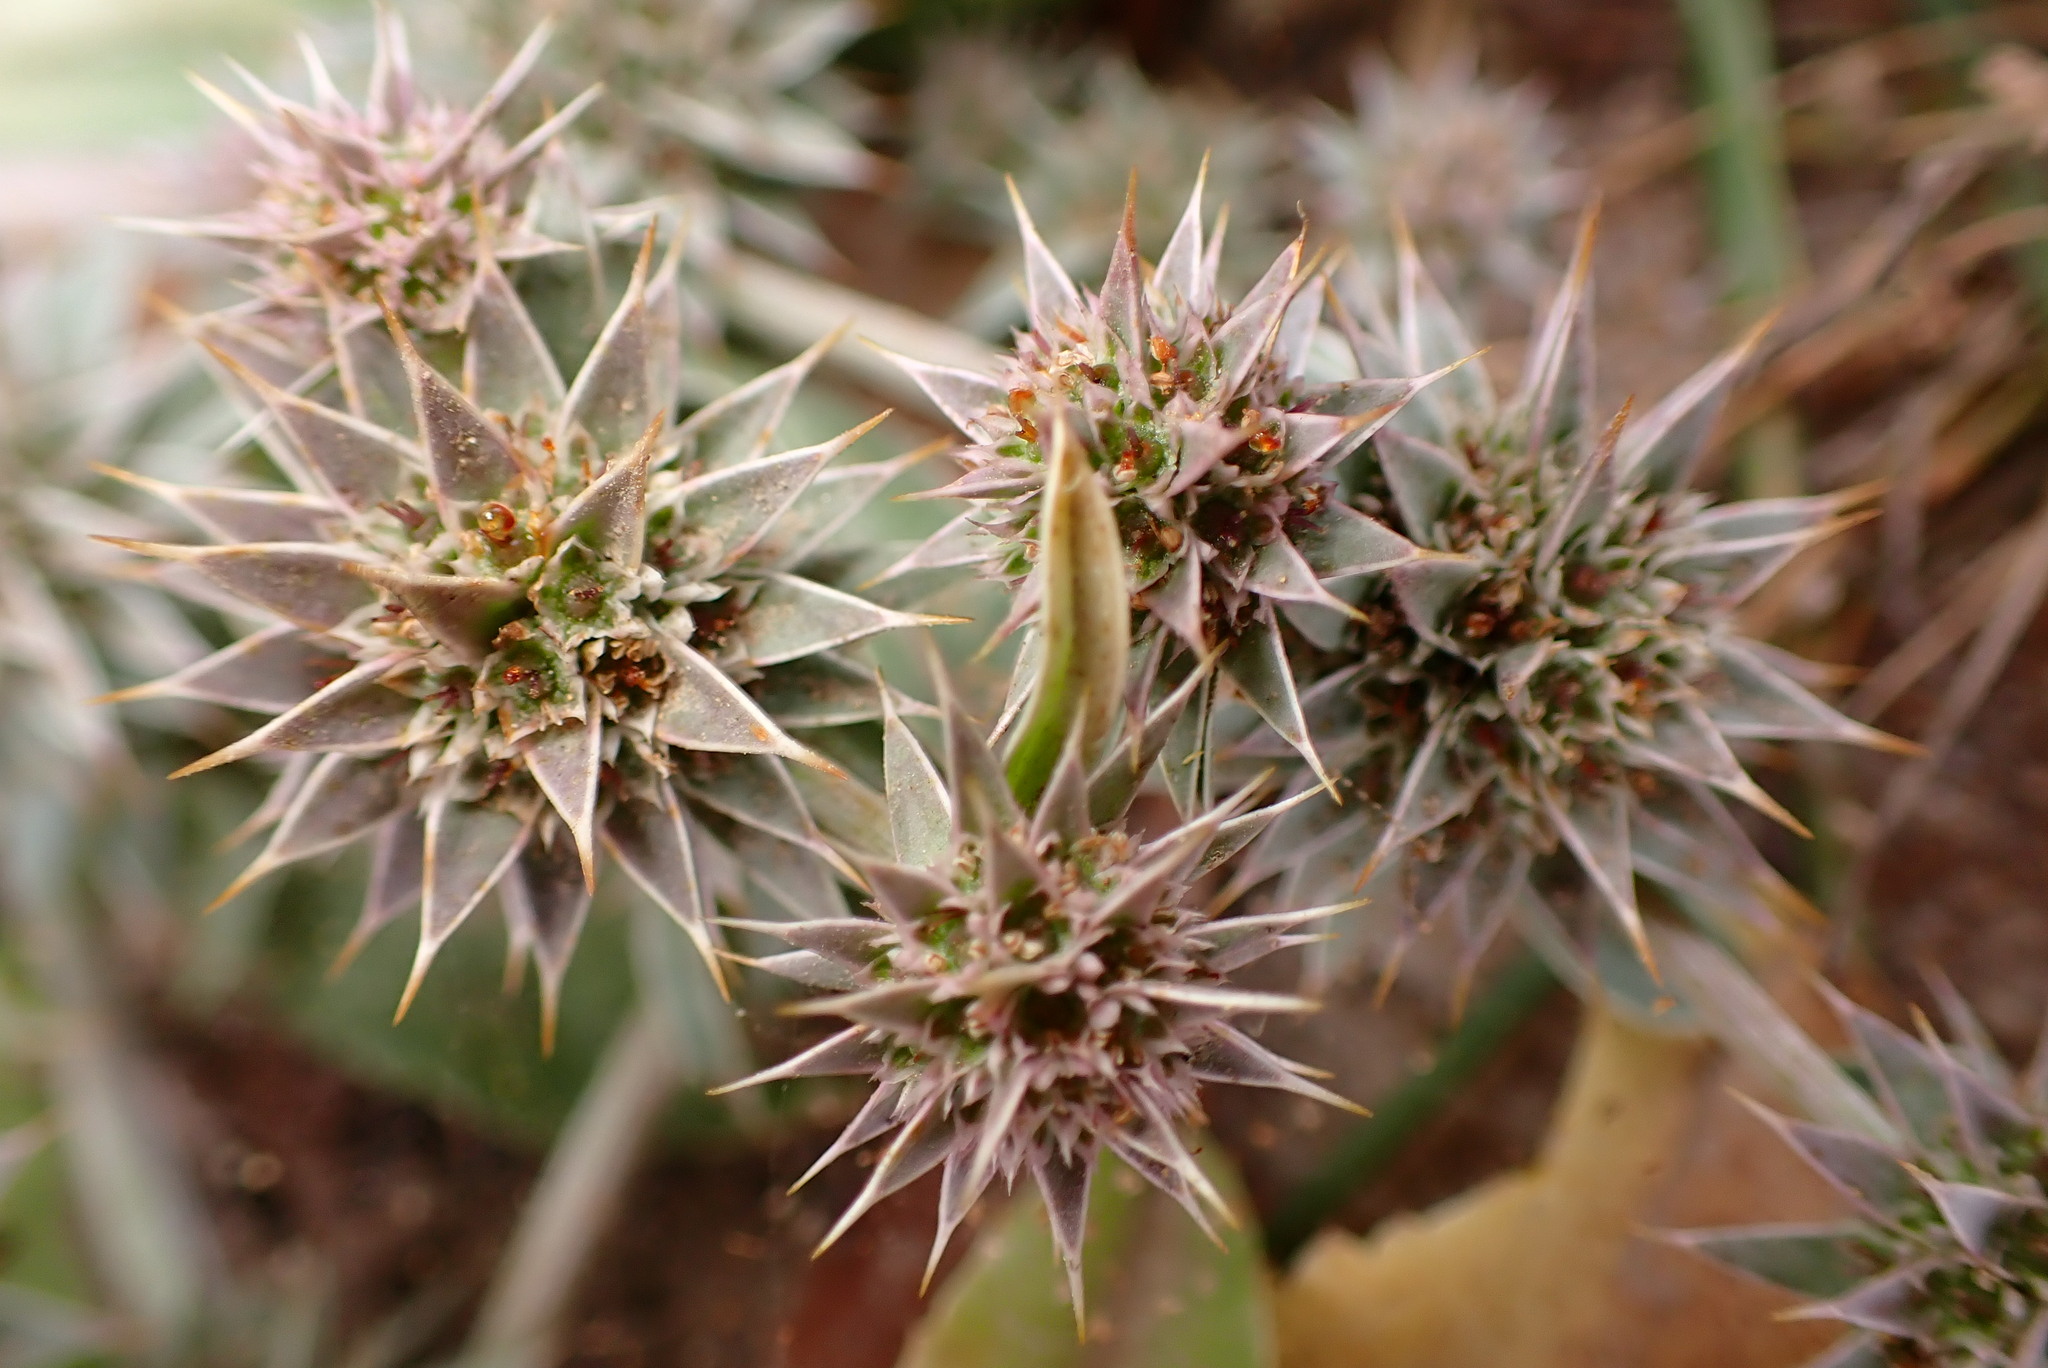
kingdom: Plantae
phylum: Tracheophyta
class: Magnoliopsida
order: Apiales
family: Apiaceae
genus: Eryngium
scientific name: Eryngium armatum
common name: Coyote thistle
